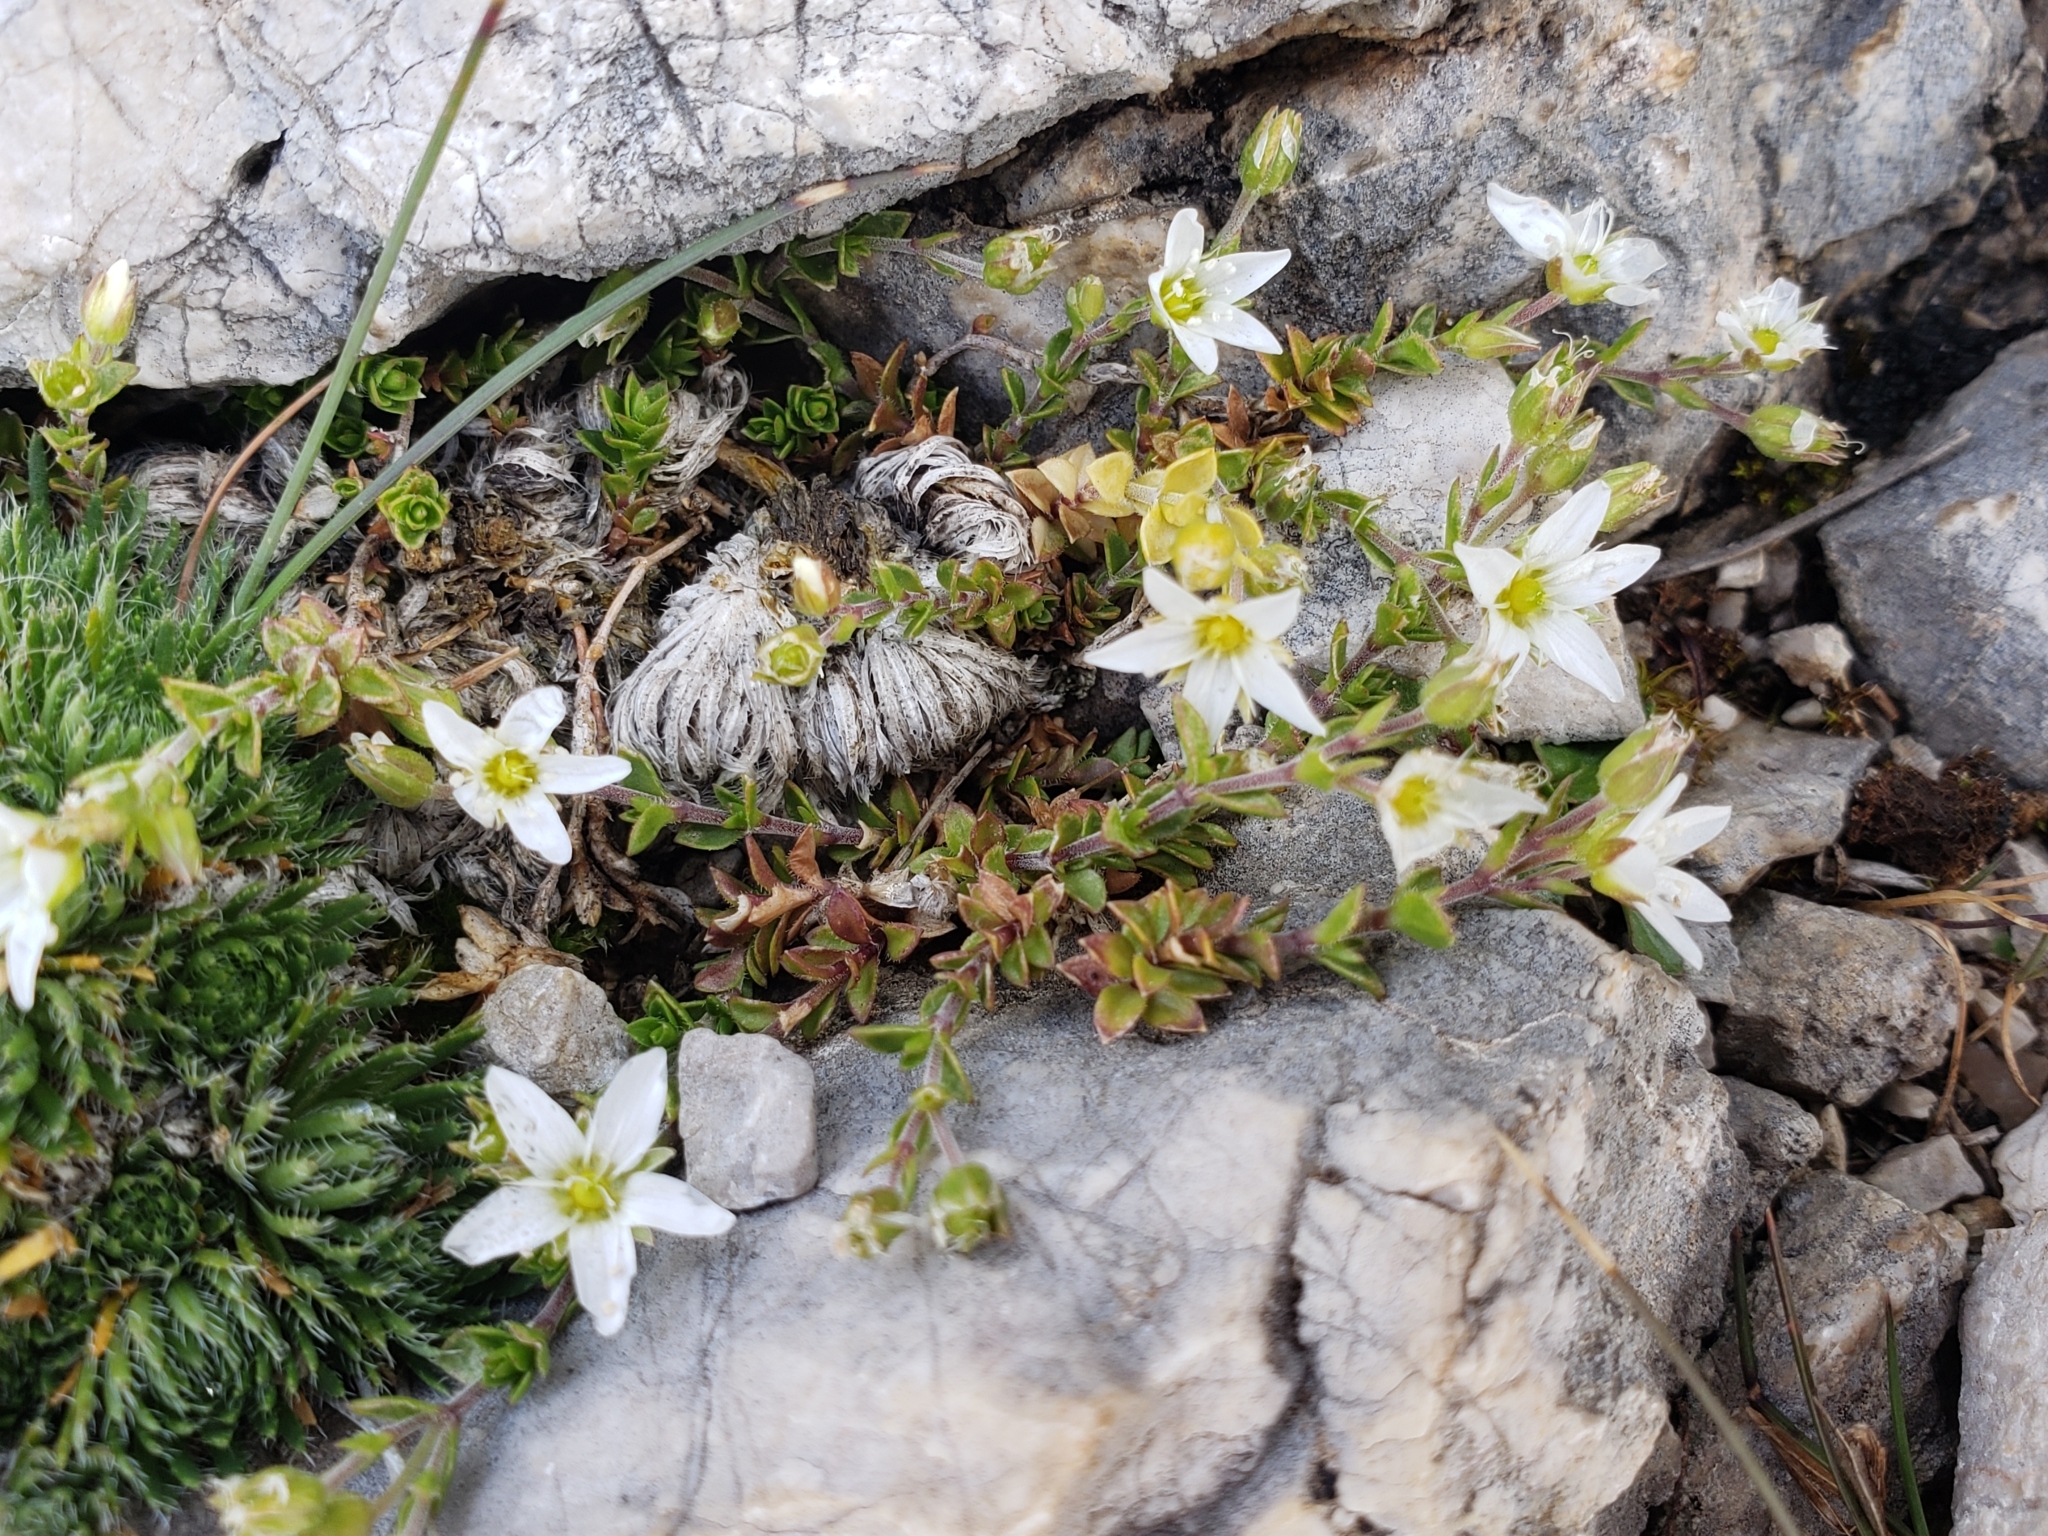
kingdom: Plantae
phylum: Tracheophyta
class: Magnoliopsida
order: Caryophyllales
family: Caryophyllaceae
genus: Arenaria
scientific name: Arenaria ciliata
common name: Fringed sandwort
